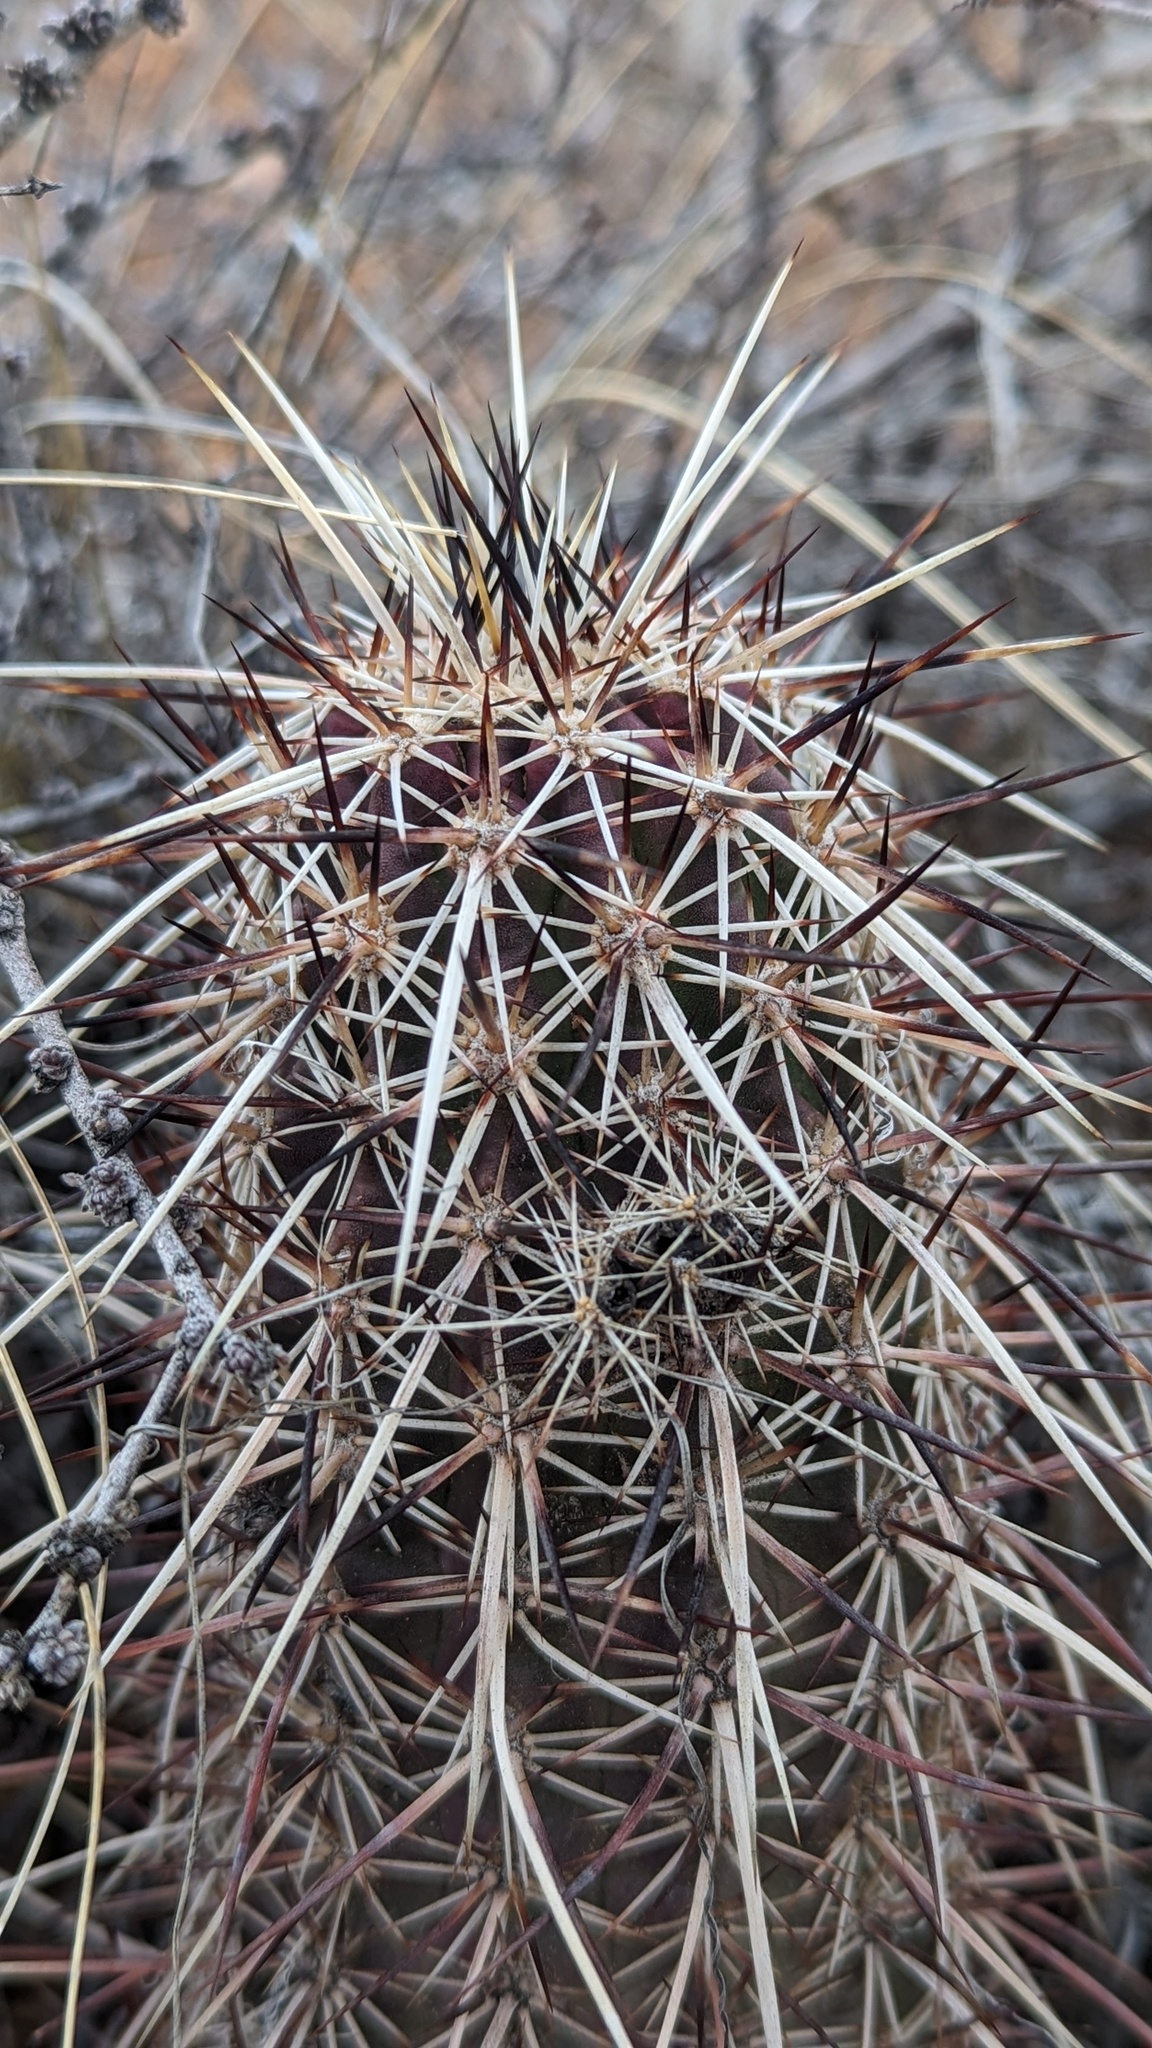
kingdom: Plantae
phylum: Tracheophyta
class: Magnoliopsida
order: Caryophyllales
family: Cactaceae
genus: Echinocereus
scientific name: Echinocereus engelmannii
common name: Engelmann's hedgehog cactus
